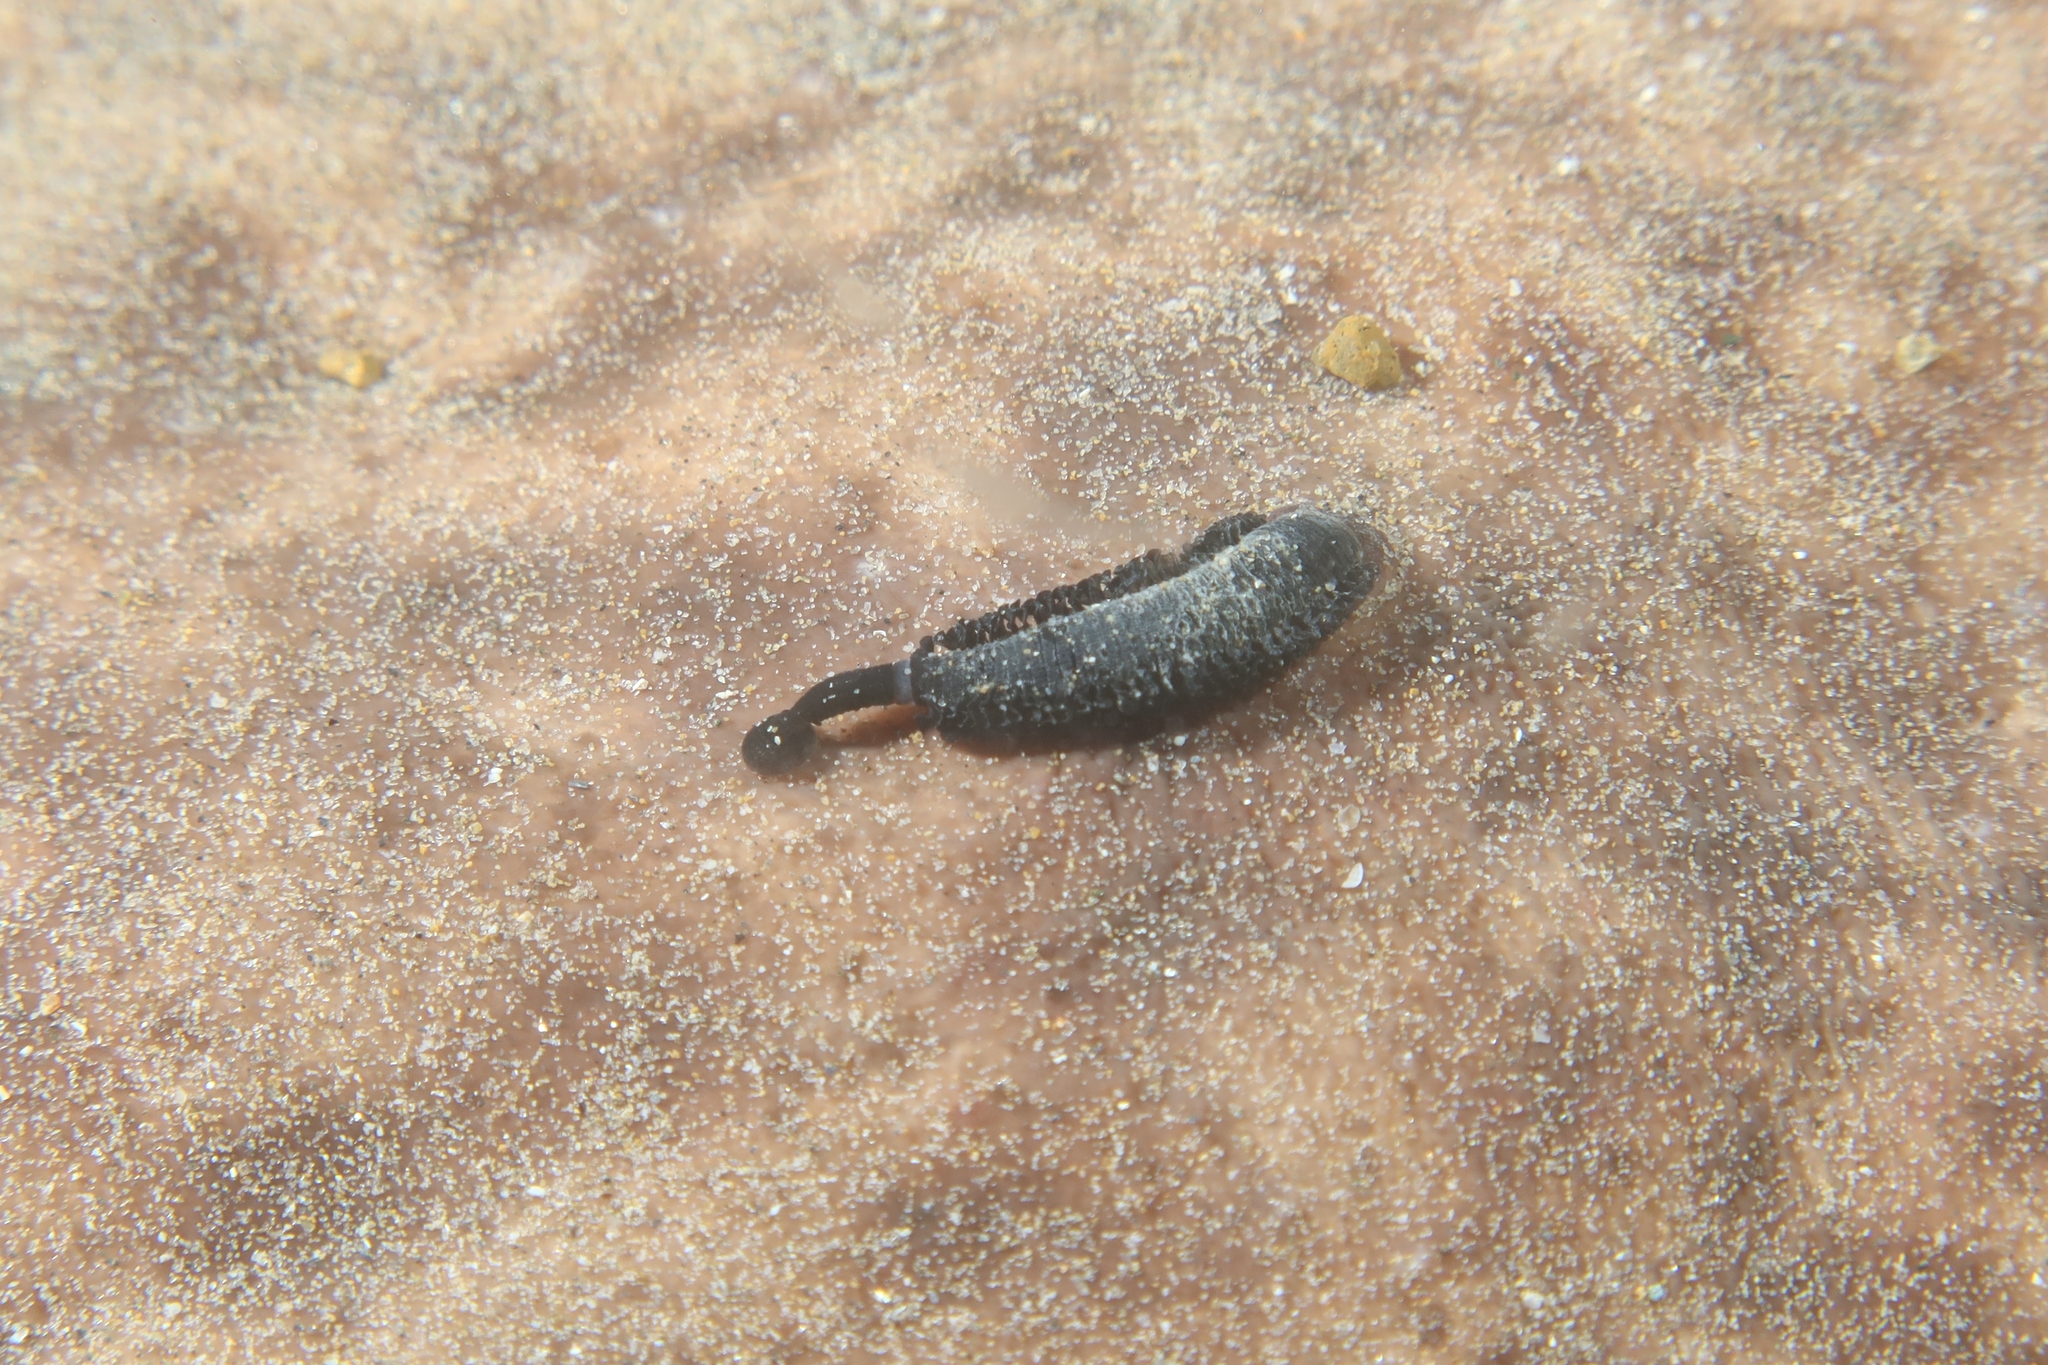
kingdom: Animalia
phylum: Annelida
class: Clitellata
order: Rhynchobdellida
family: Piscicolidae
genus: Branchellion
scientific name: Branchellion torpedinis
